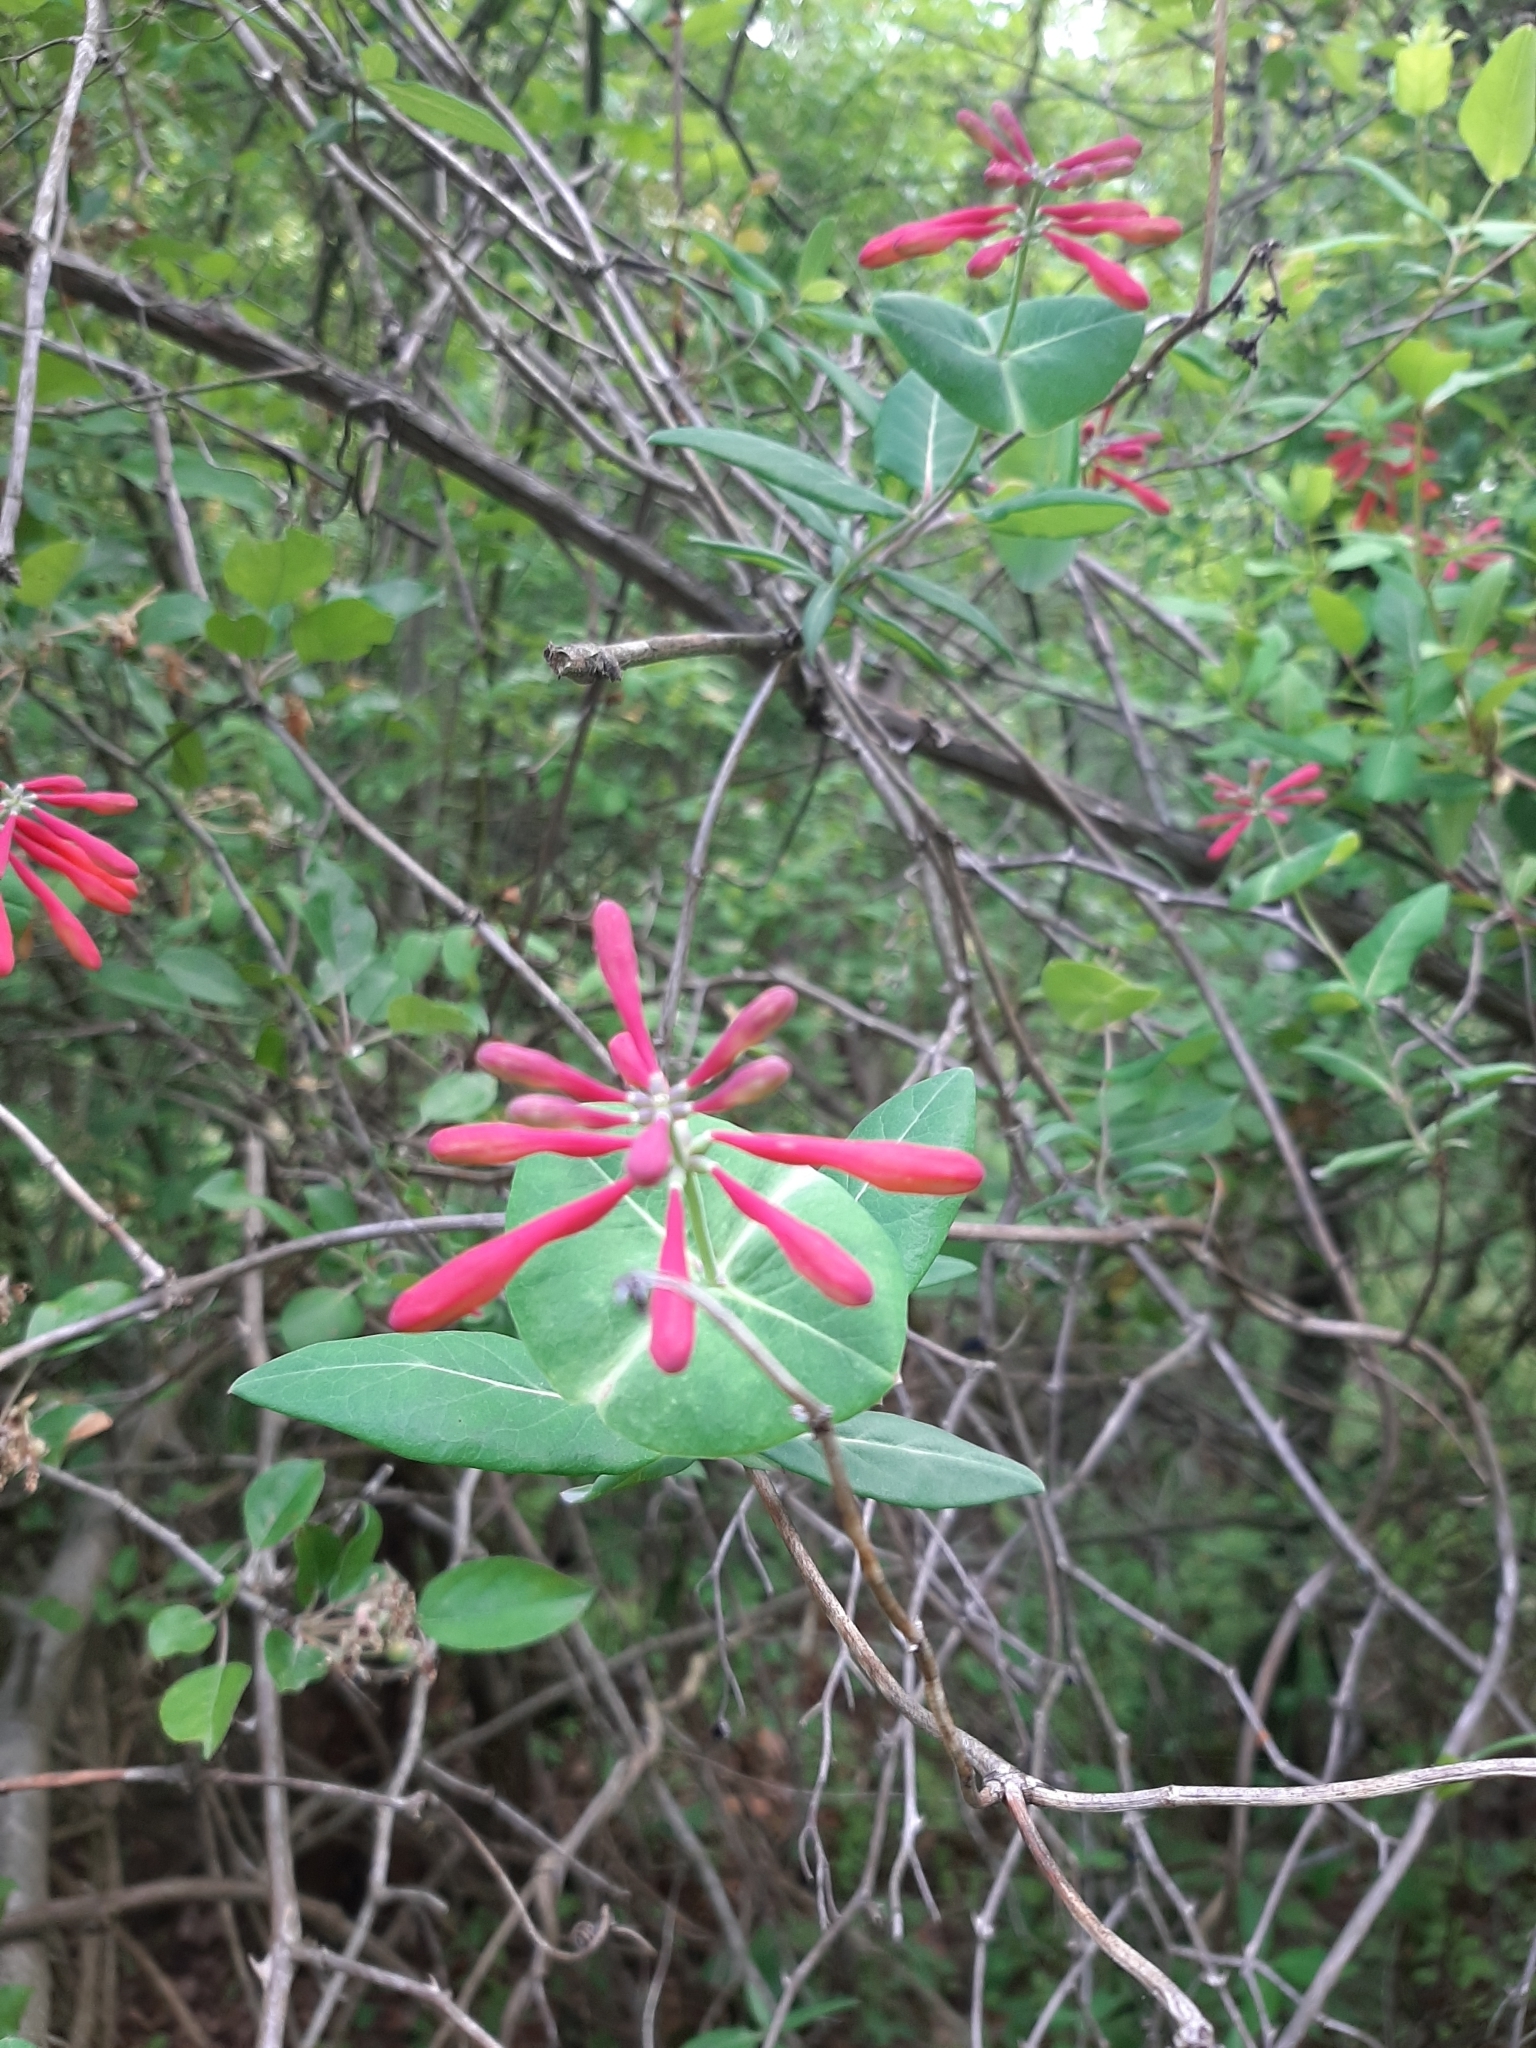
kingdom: Plantae
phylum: Tracheophyta
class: Magnoliopsida
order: Dipsacales
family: Caprifoliaceae
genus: Lonicera
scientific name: Lonicera sempervirens
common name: Coral honeysuckle
